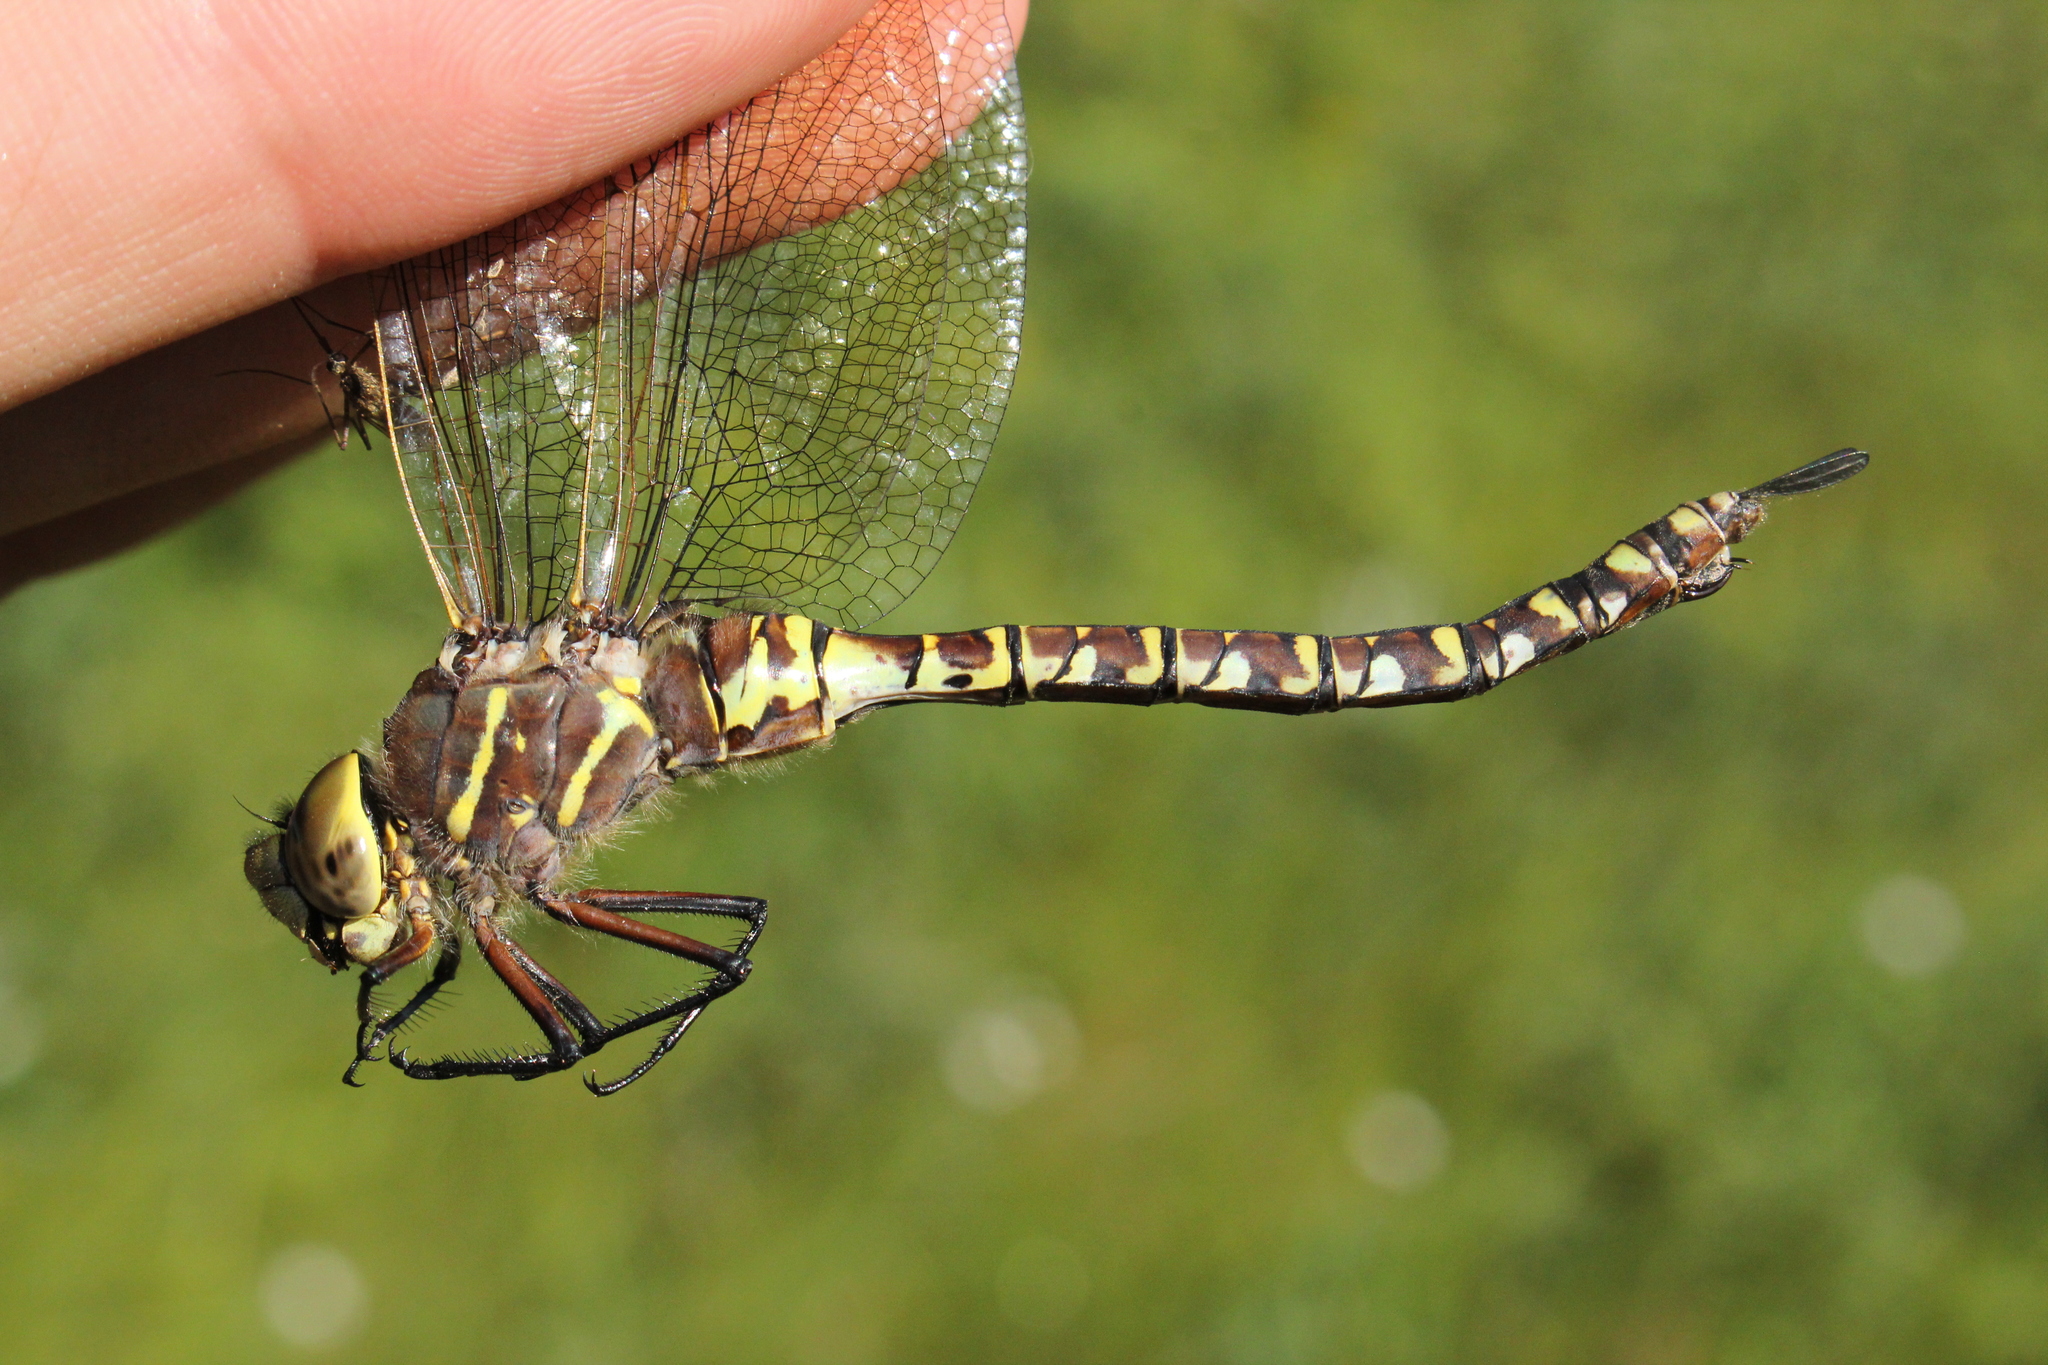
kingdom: Animalia
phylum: Arthropoda
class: Insecta
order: Odonata
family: Aeshnidae
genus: Aeshna
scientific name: Aeshna interrupta
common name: Variable darner
